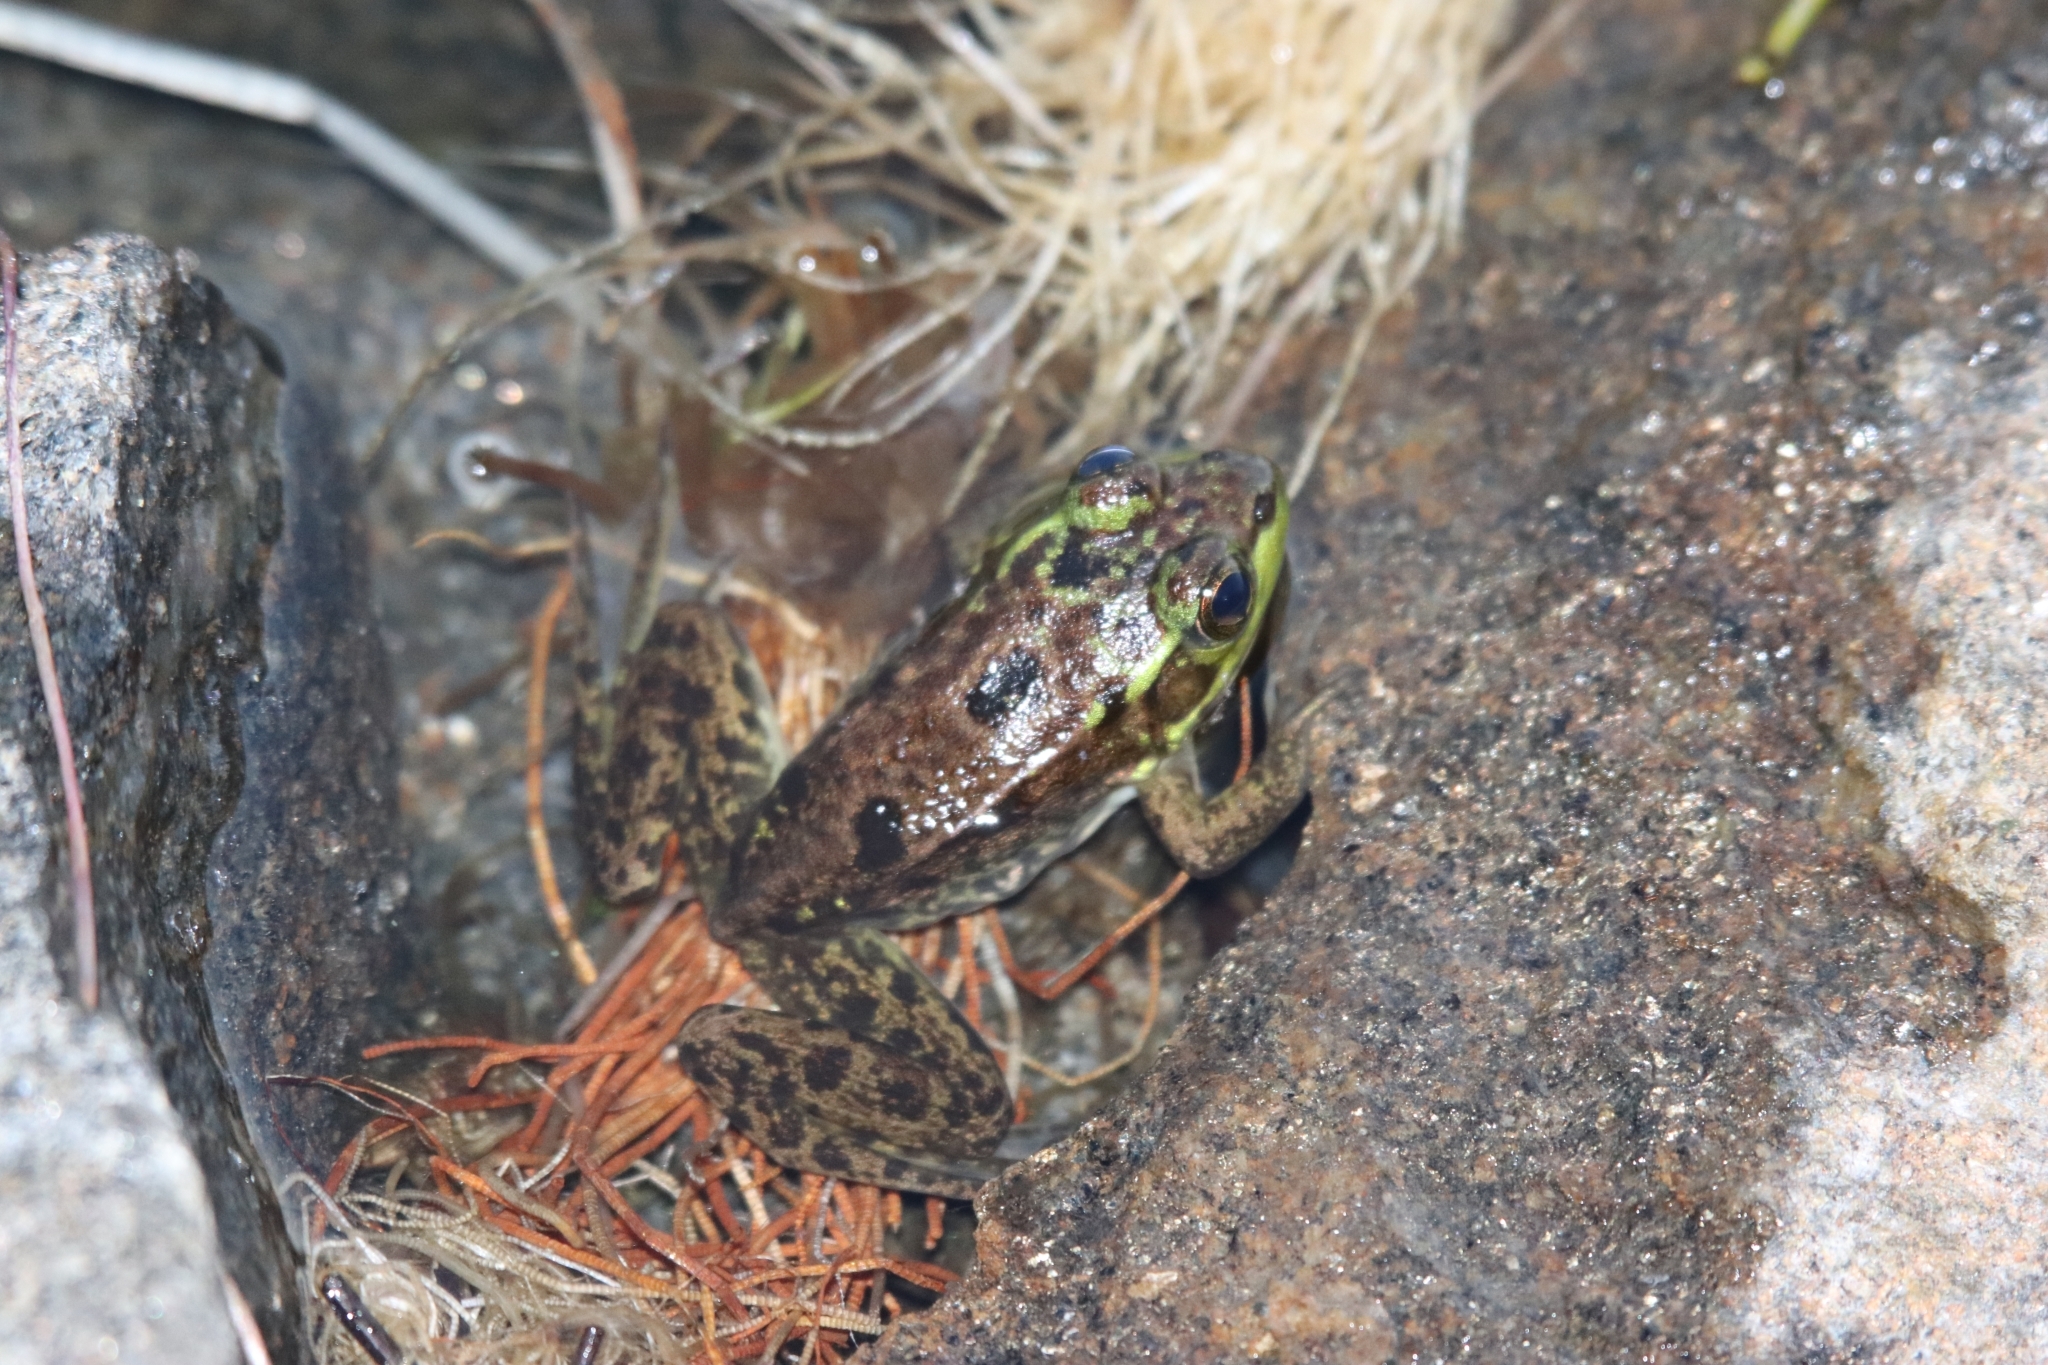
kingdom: Animalia
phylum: Chordata
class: Amphibia
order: Anura
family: Ranidae
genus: Lithobates
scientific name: Lithobates septentrionalis
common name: Mink frog
